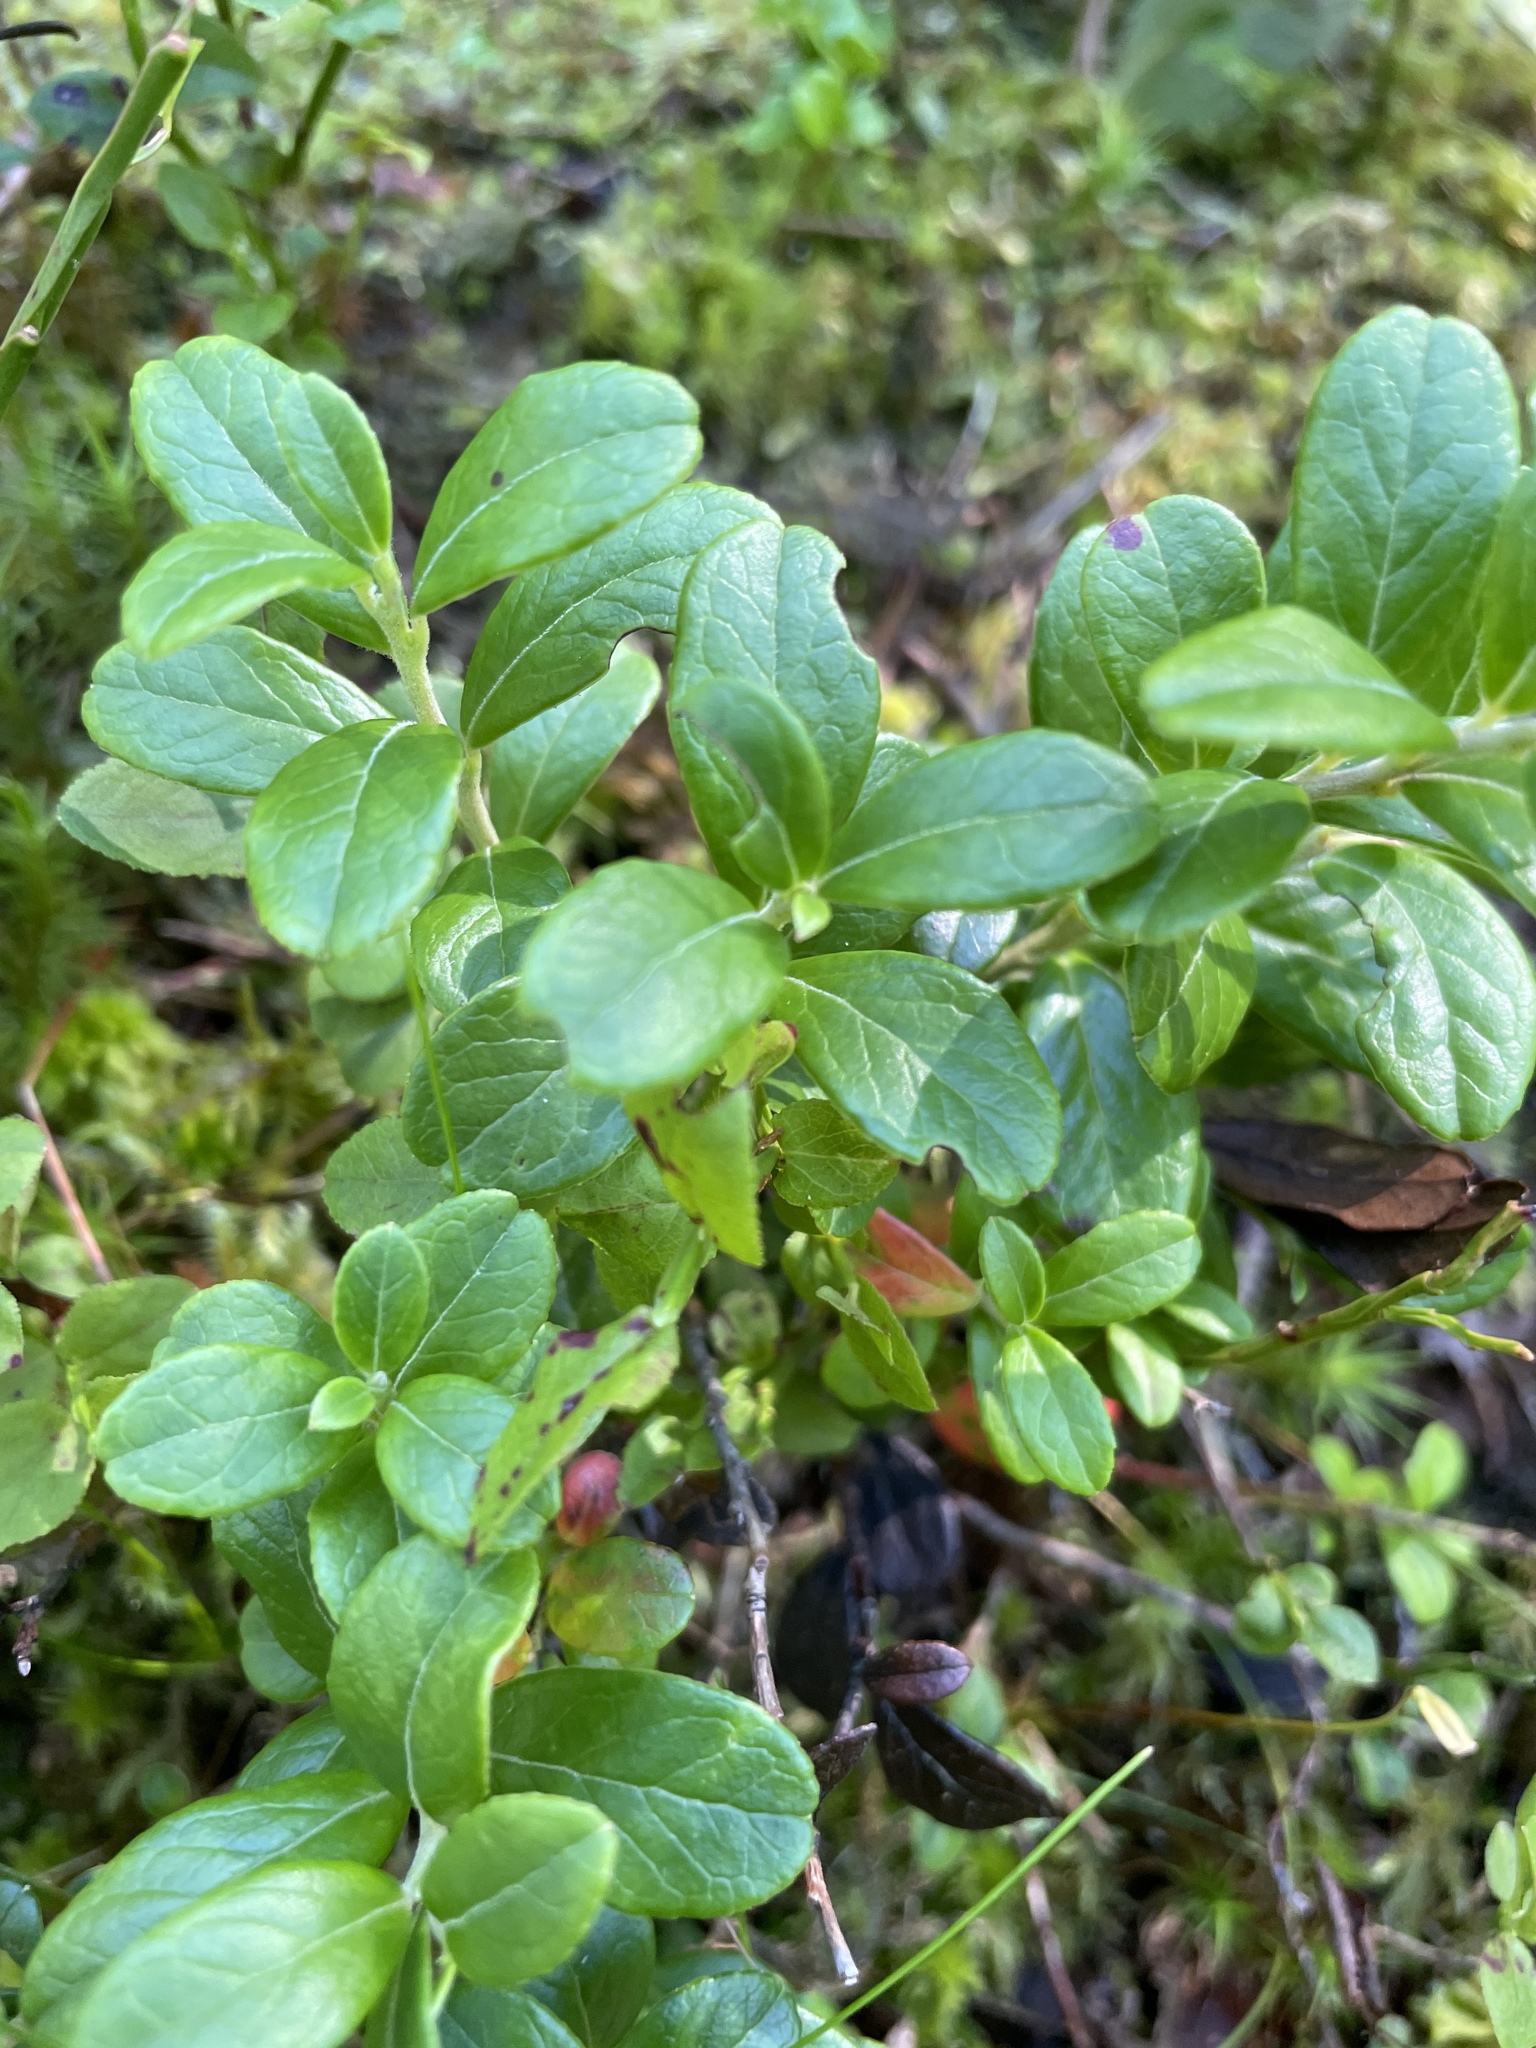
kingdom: Plantae
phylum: Tracheophyta
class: Magnoliopsida
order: Ericales
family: Ericaceae
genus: Vaccinium
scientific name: Vaccinium vitis-idaea
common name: Cowberry
